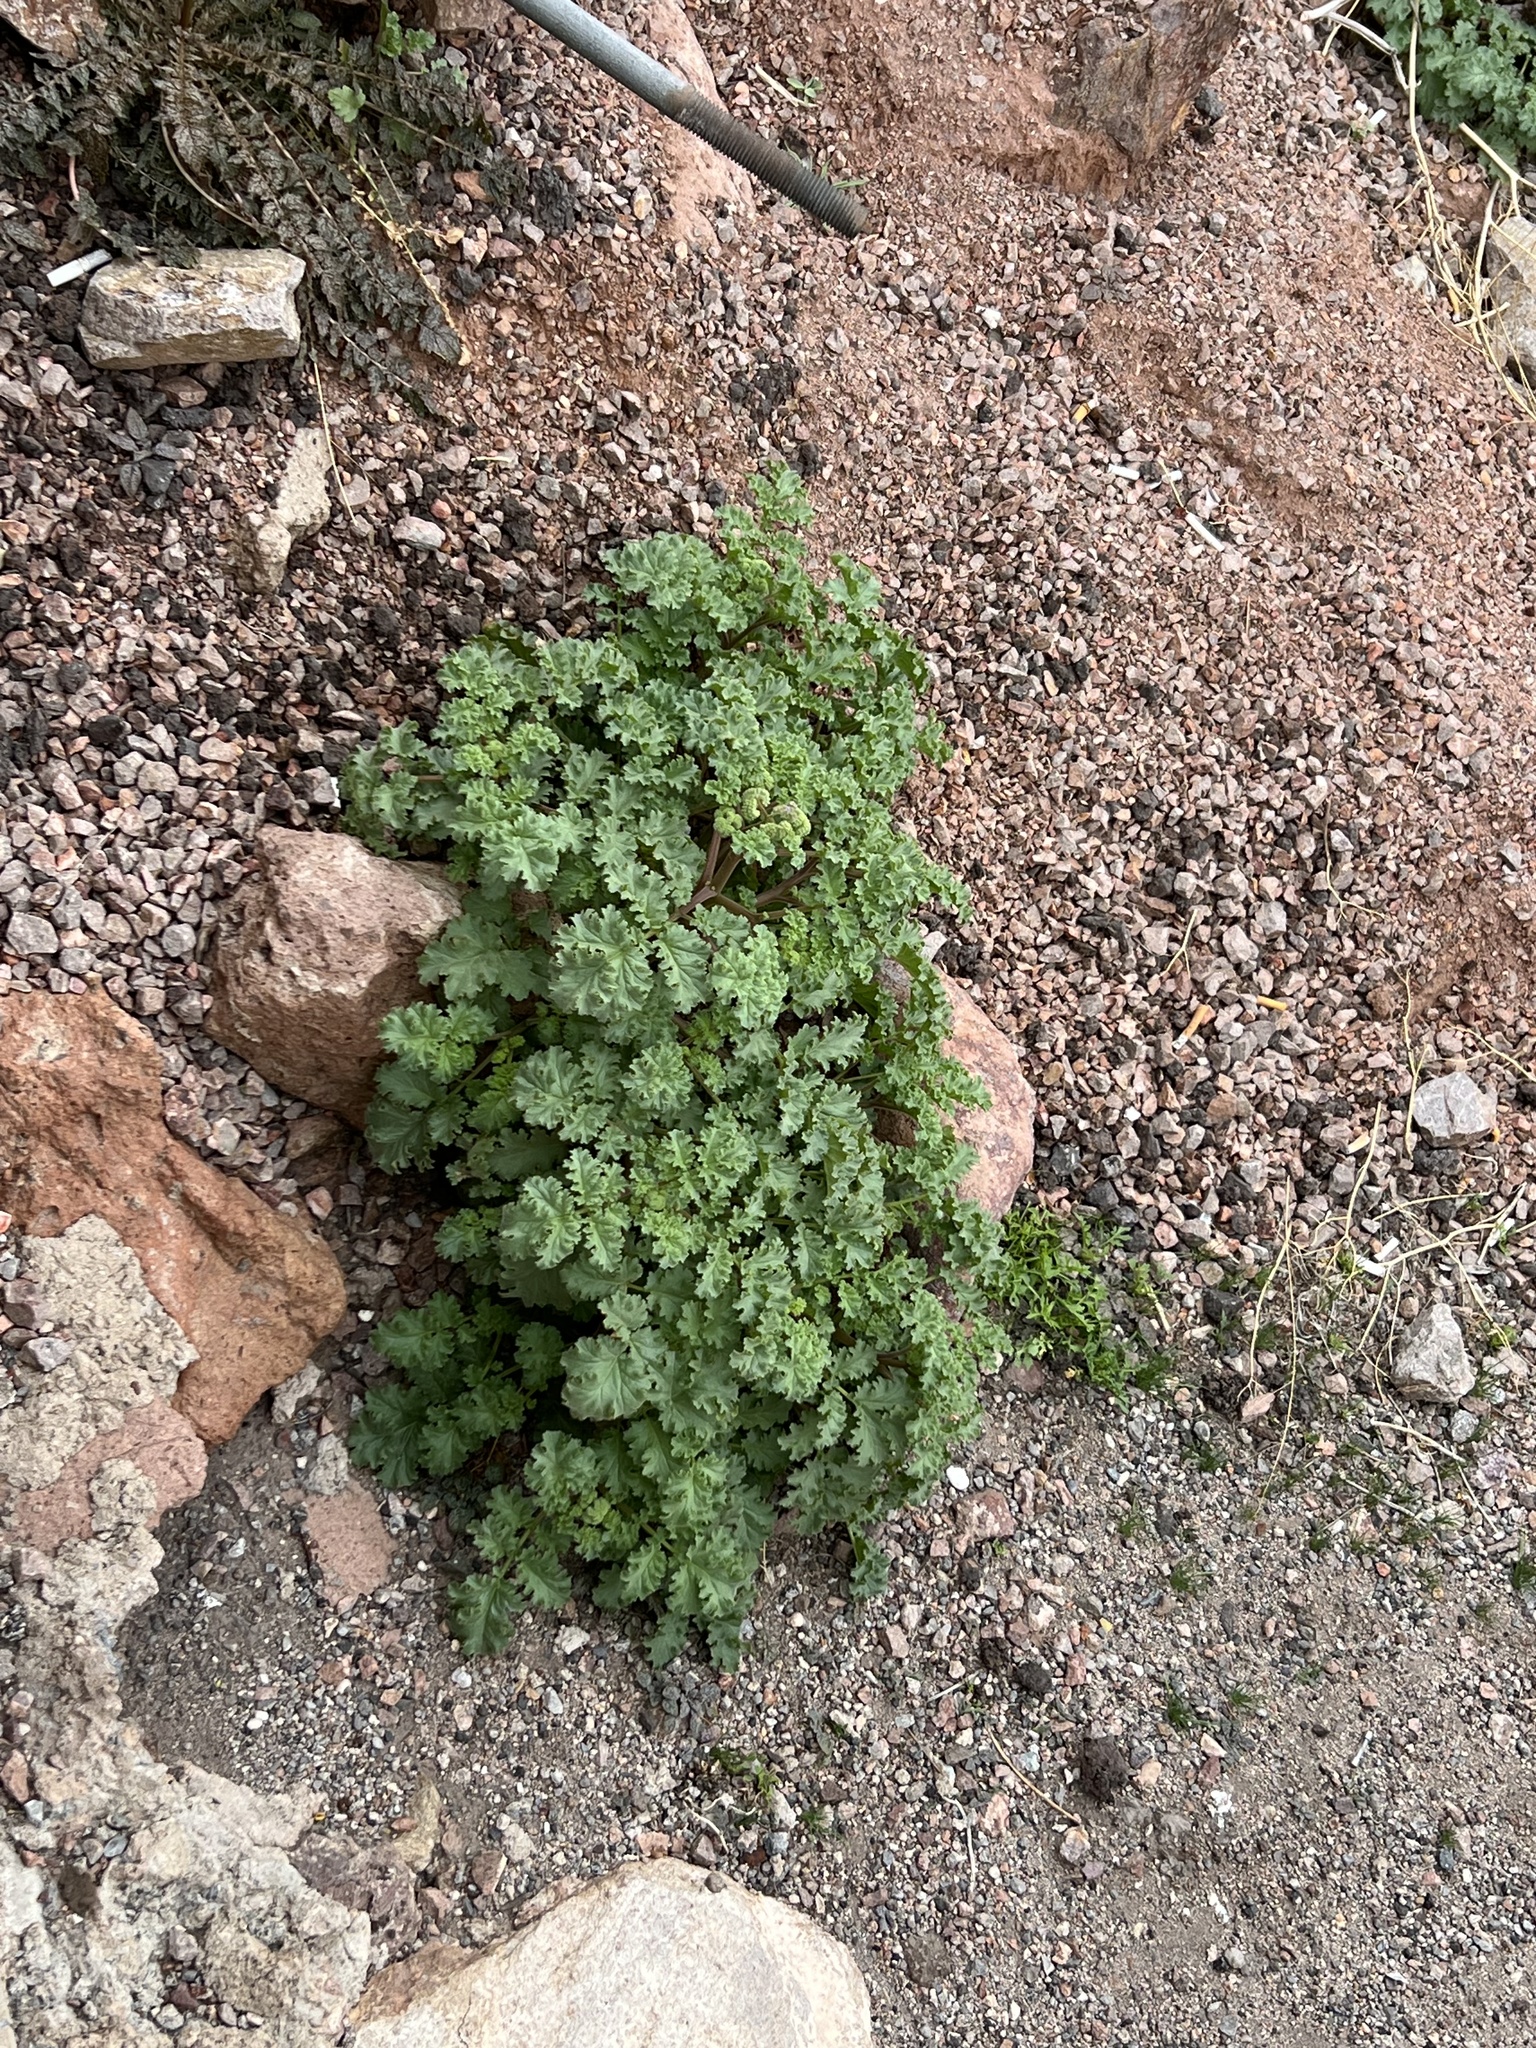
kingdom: Plantae
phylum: Tracheophyta
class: Magnoliopsida
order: Boraginales
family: Hydrophyllaceae
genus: Phacelia
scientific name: Phacelia pedicellata
